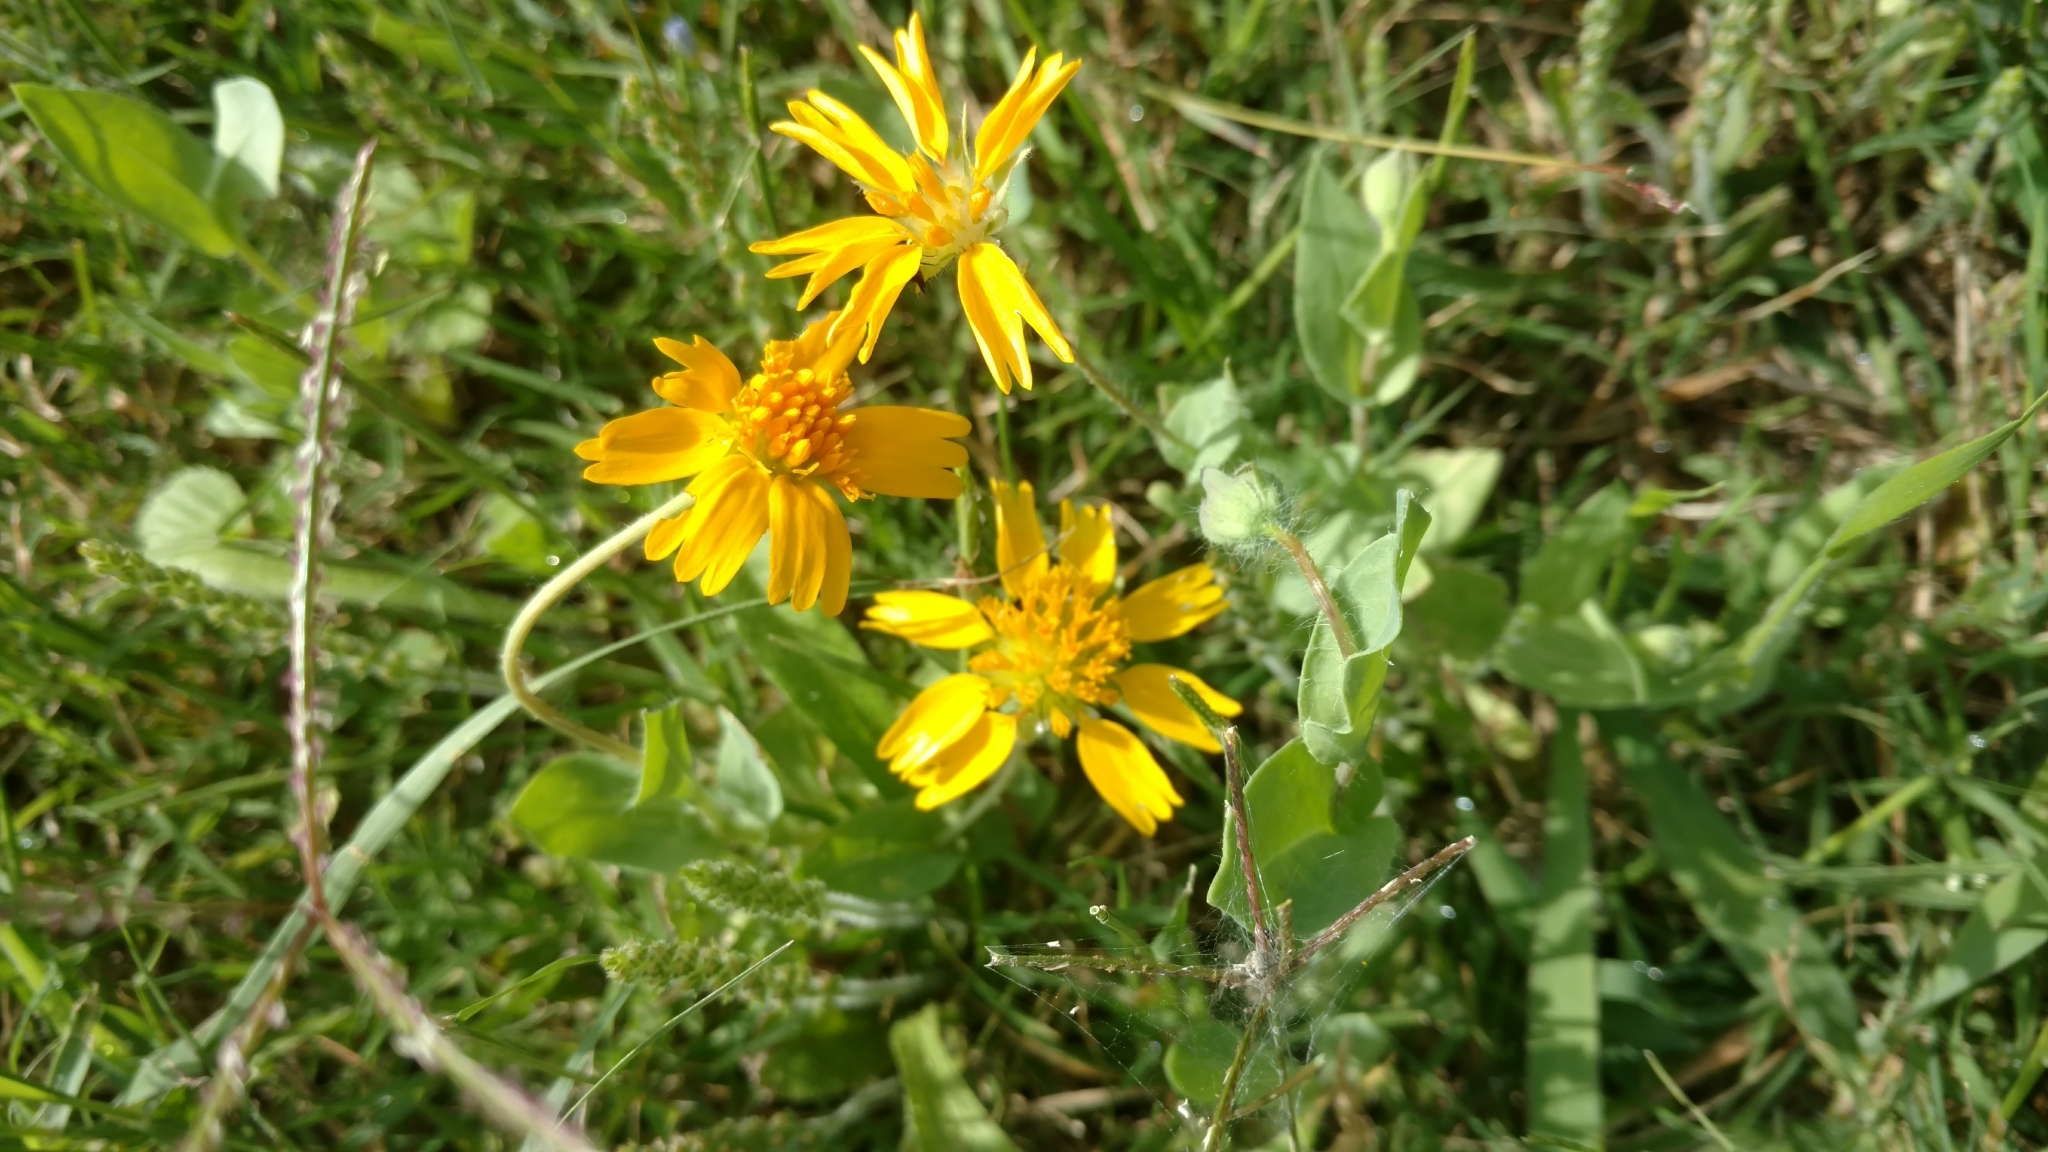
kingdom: Plantae
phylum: Tracheophyta
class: Magnoliopsida
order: Asterales
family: Asteraceae
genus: Amblyolepis
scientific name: Amblyolepis setigera
